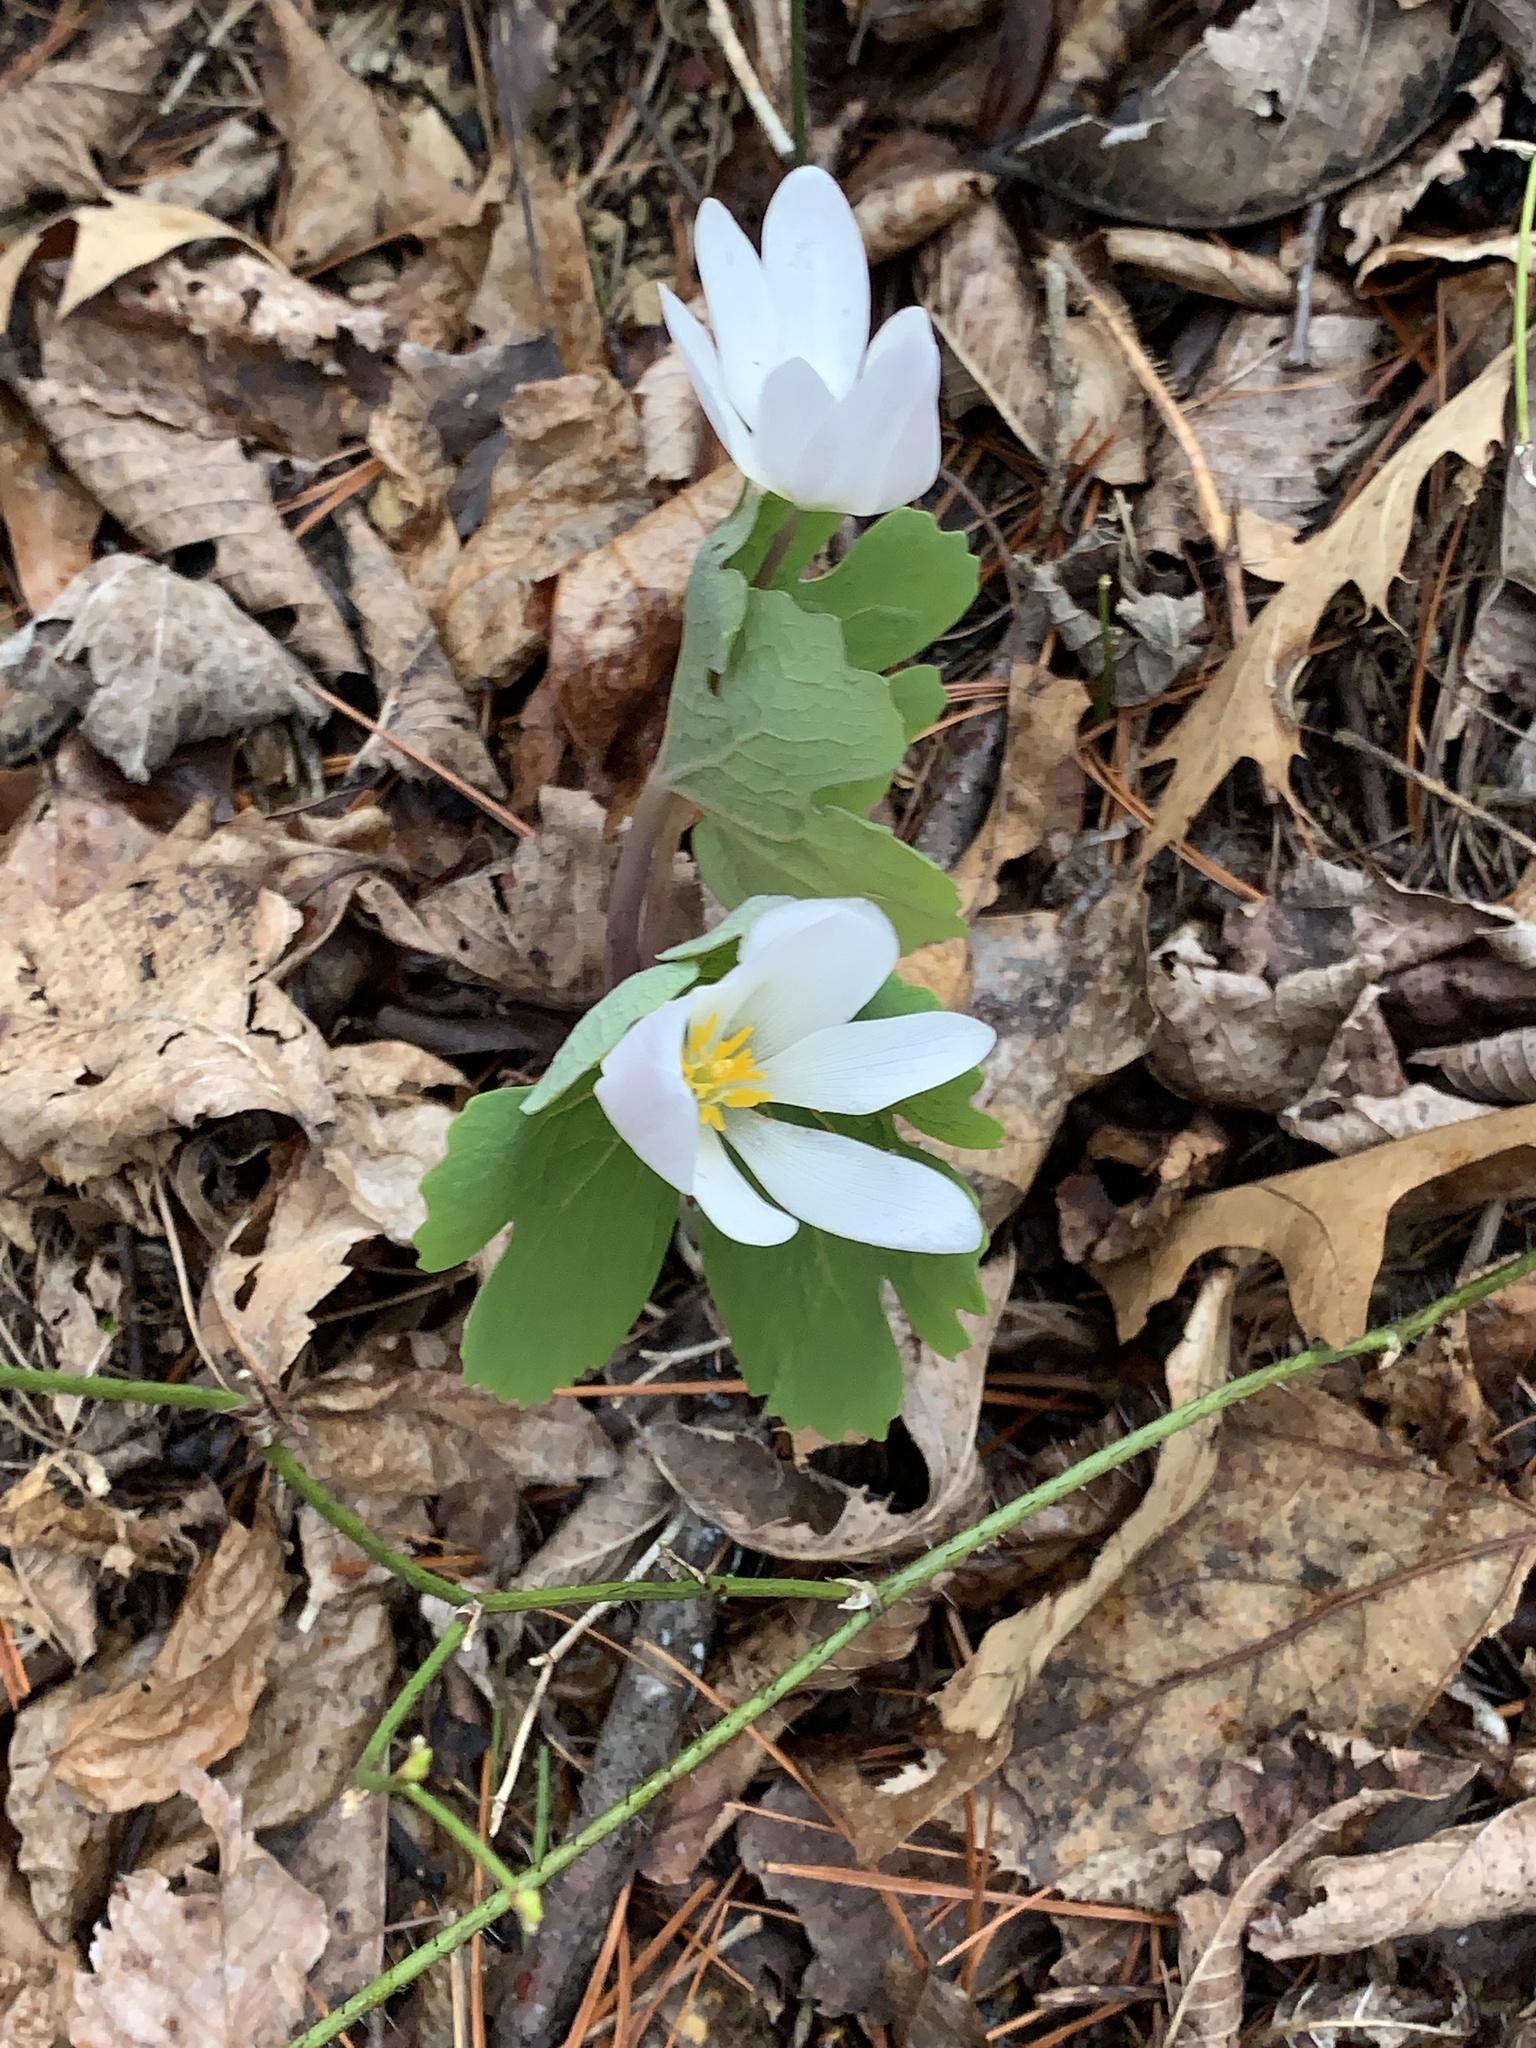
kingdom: Plantae
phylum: Tracheophyta
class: Magnoliopsida
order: Ranunculales
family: Papaveraceae
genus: Sanguinaria
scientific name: Sanguinaria canadensis
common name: Bloodroot
